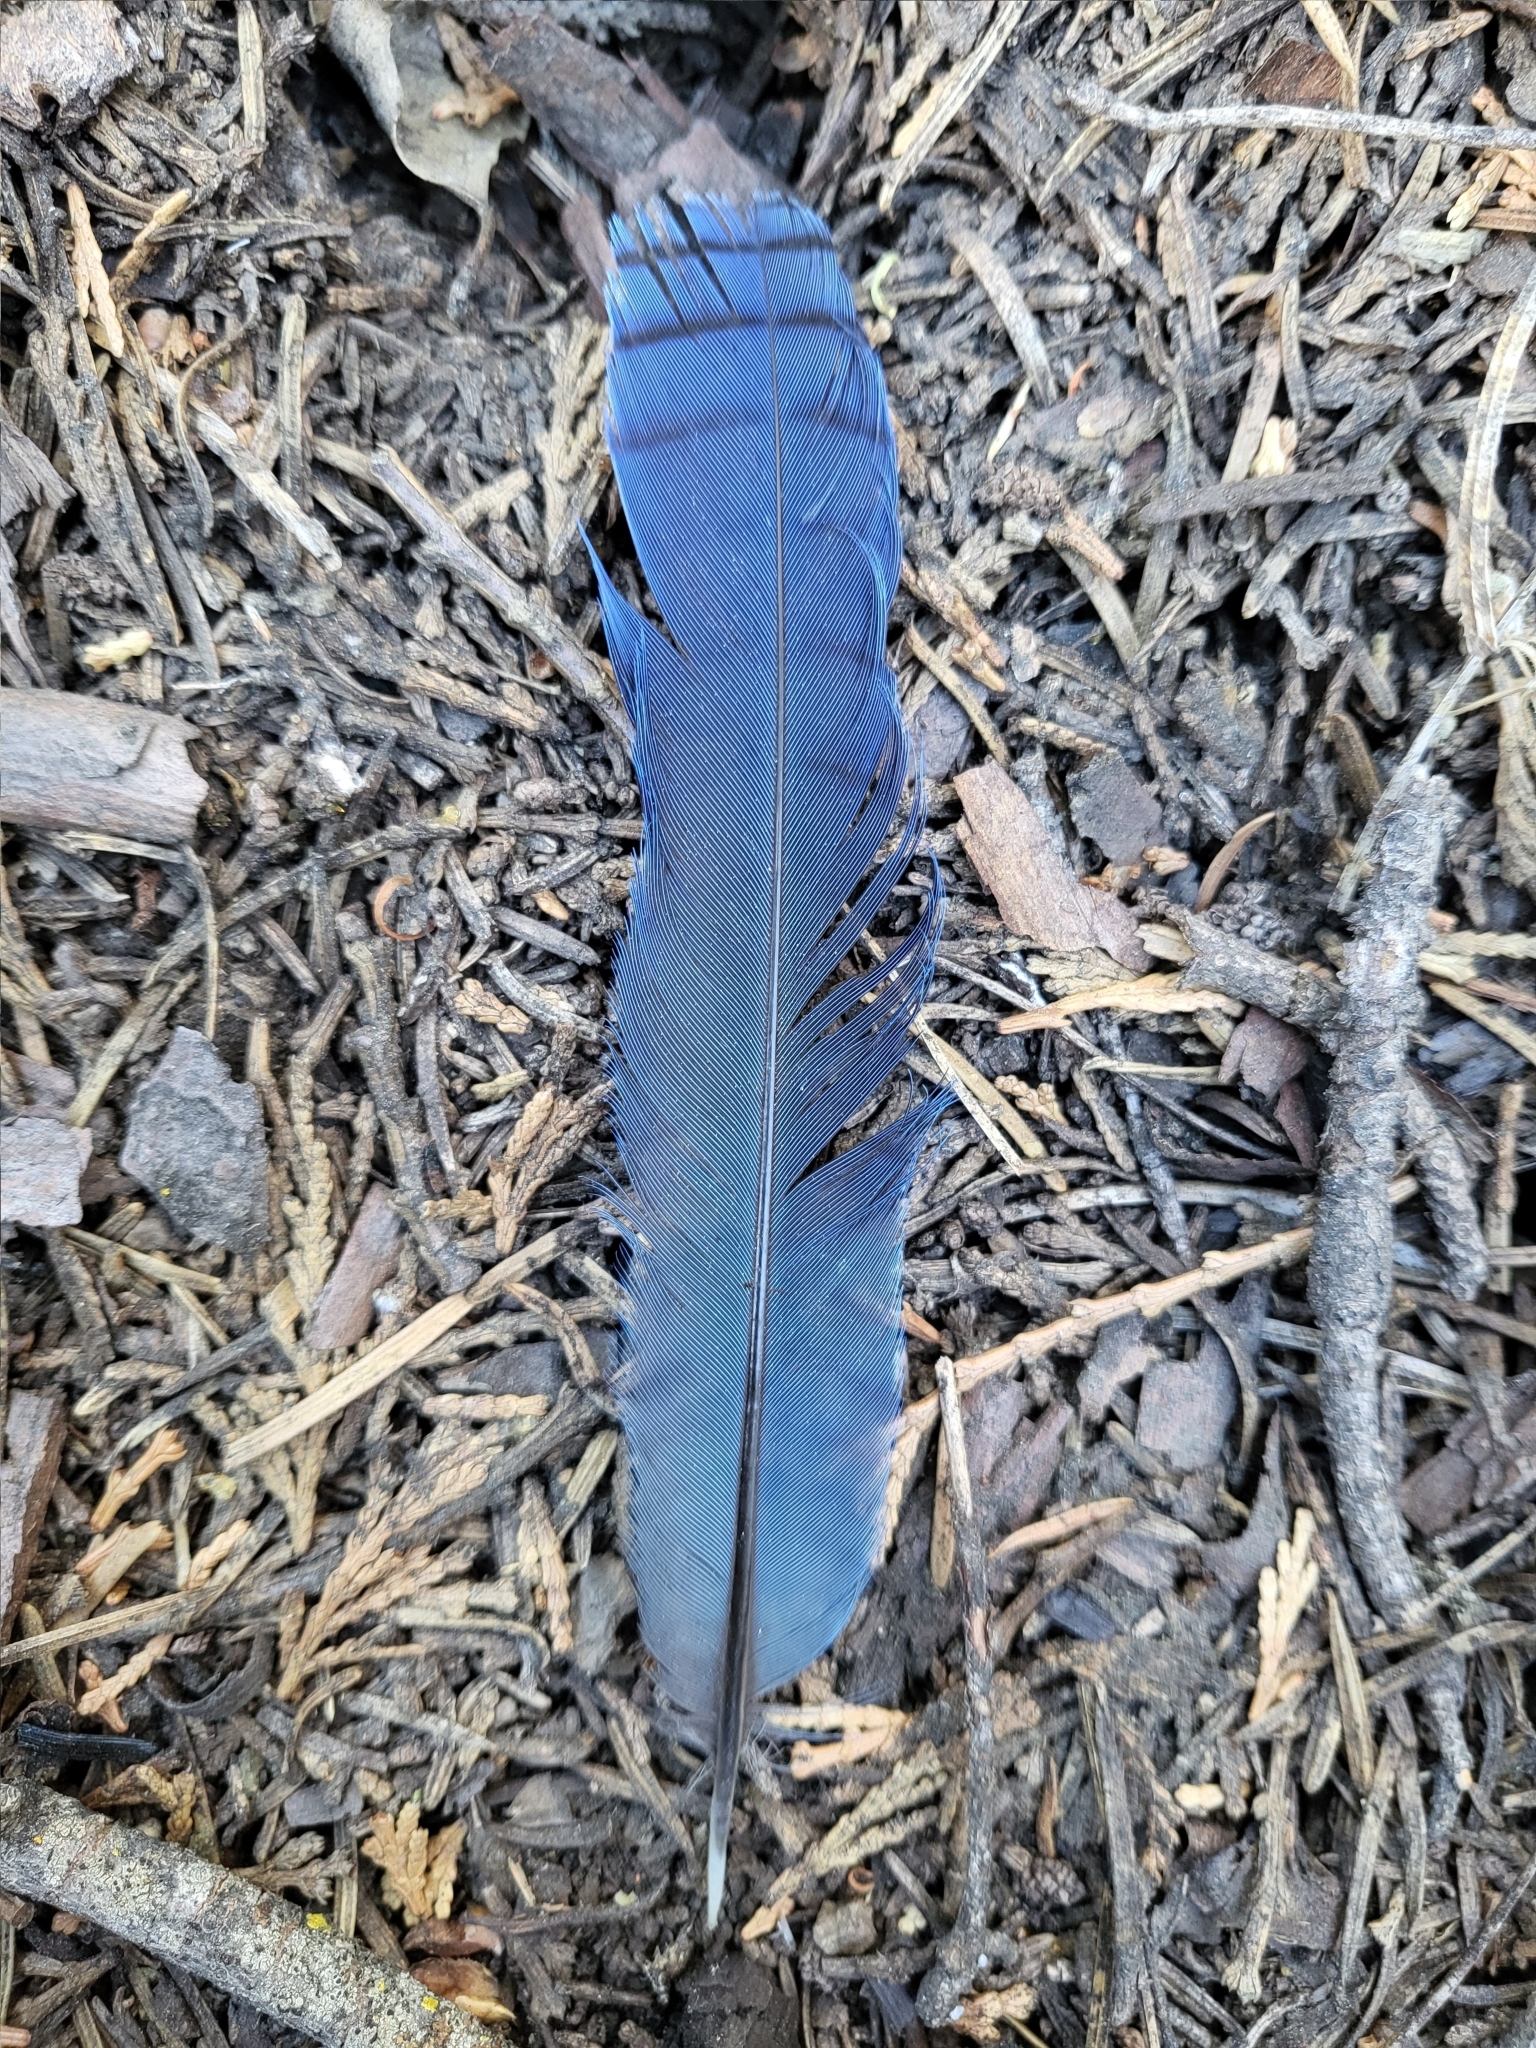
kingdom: Animalia
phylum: Chordata
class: Aves
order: Passeriformes
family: Corvidae
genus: Cyanocitta
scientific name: Cyanocitta stelleri
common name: Steller's jay
